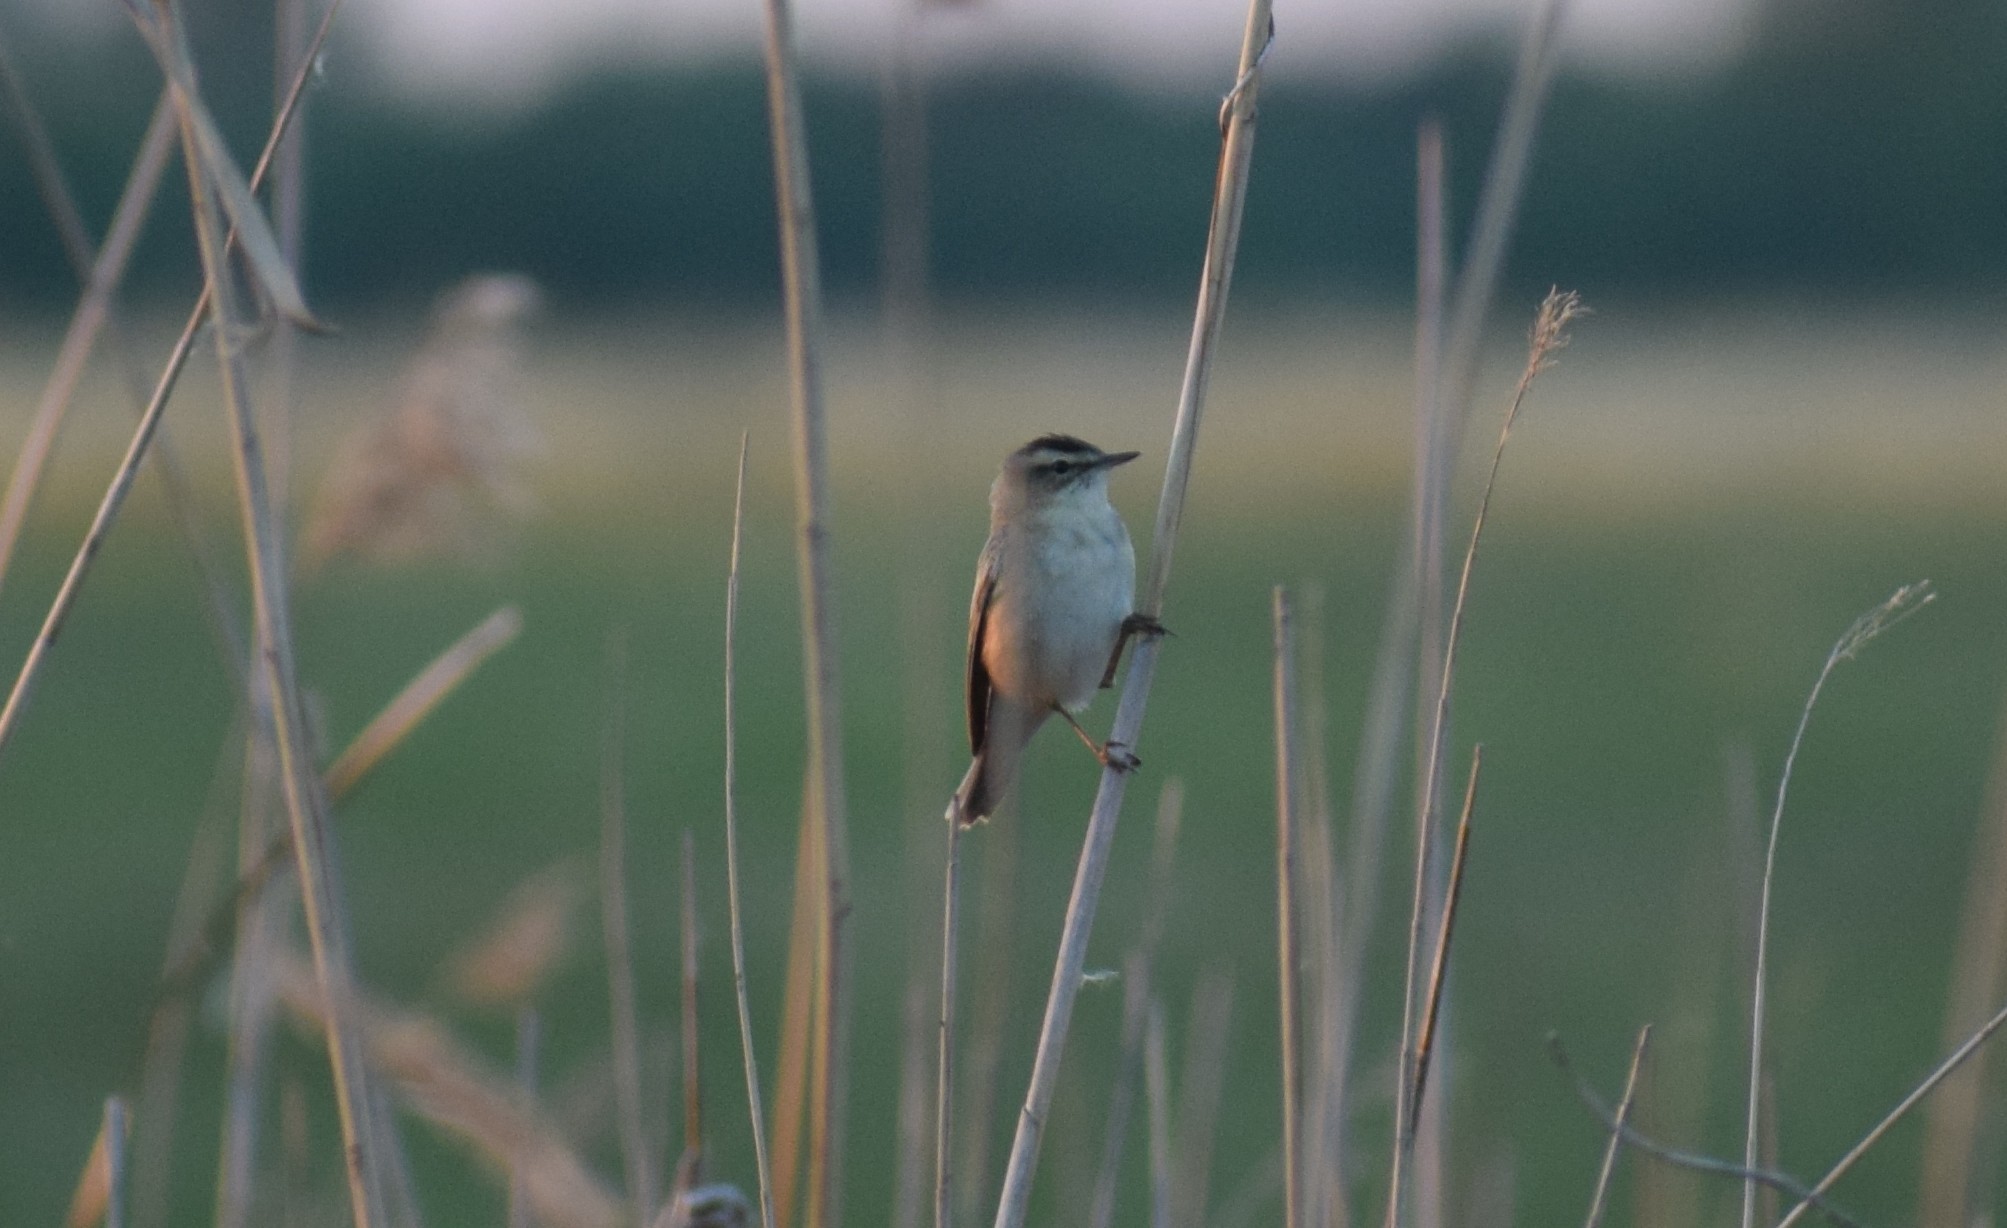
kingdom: Animalia
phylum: Chordata
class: Aves
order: Passeriformes
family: Acrocephalidae
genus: Acrocephalus
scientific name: Acrocephalus schoenobaenus
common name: Sedge warbler
